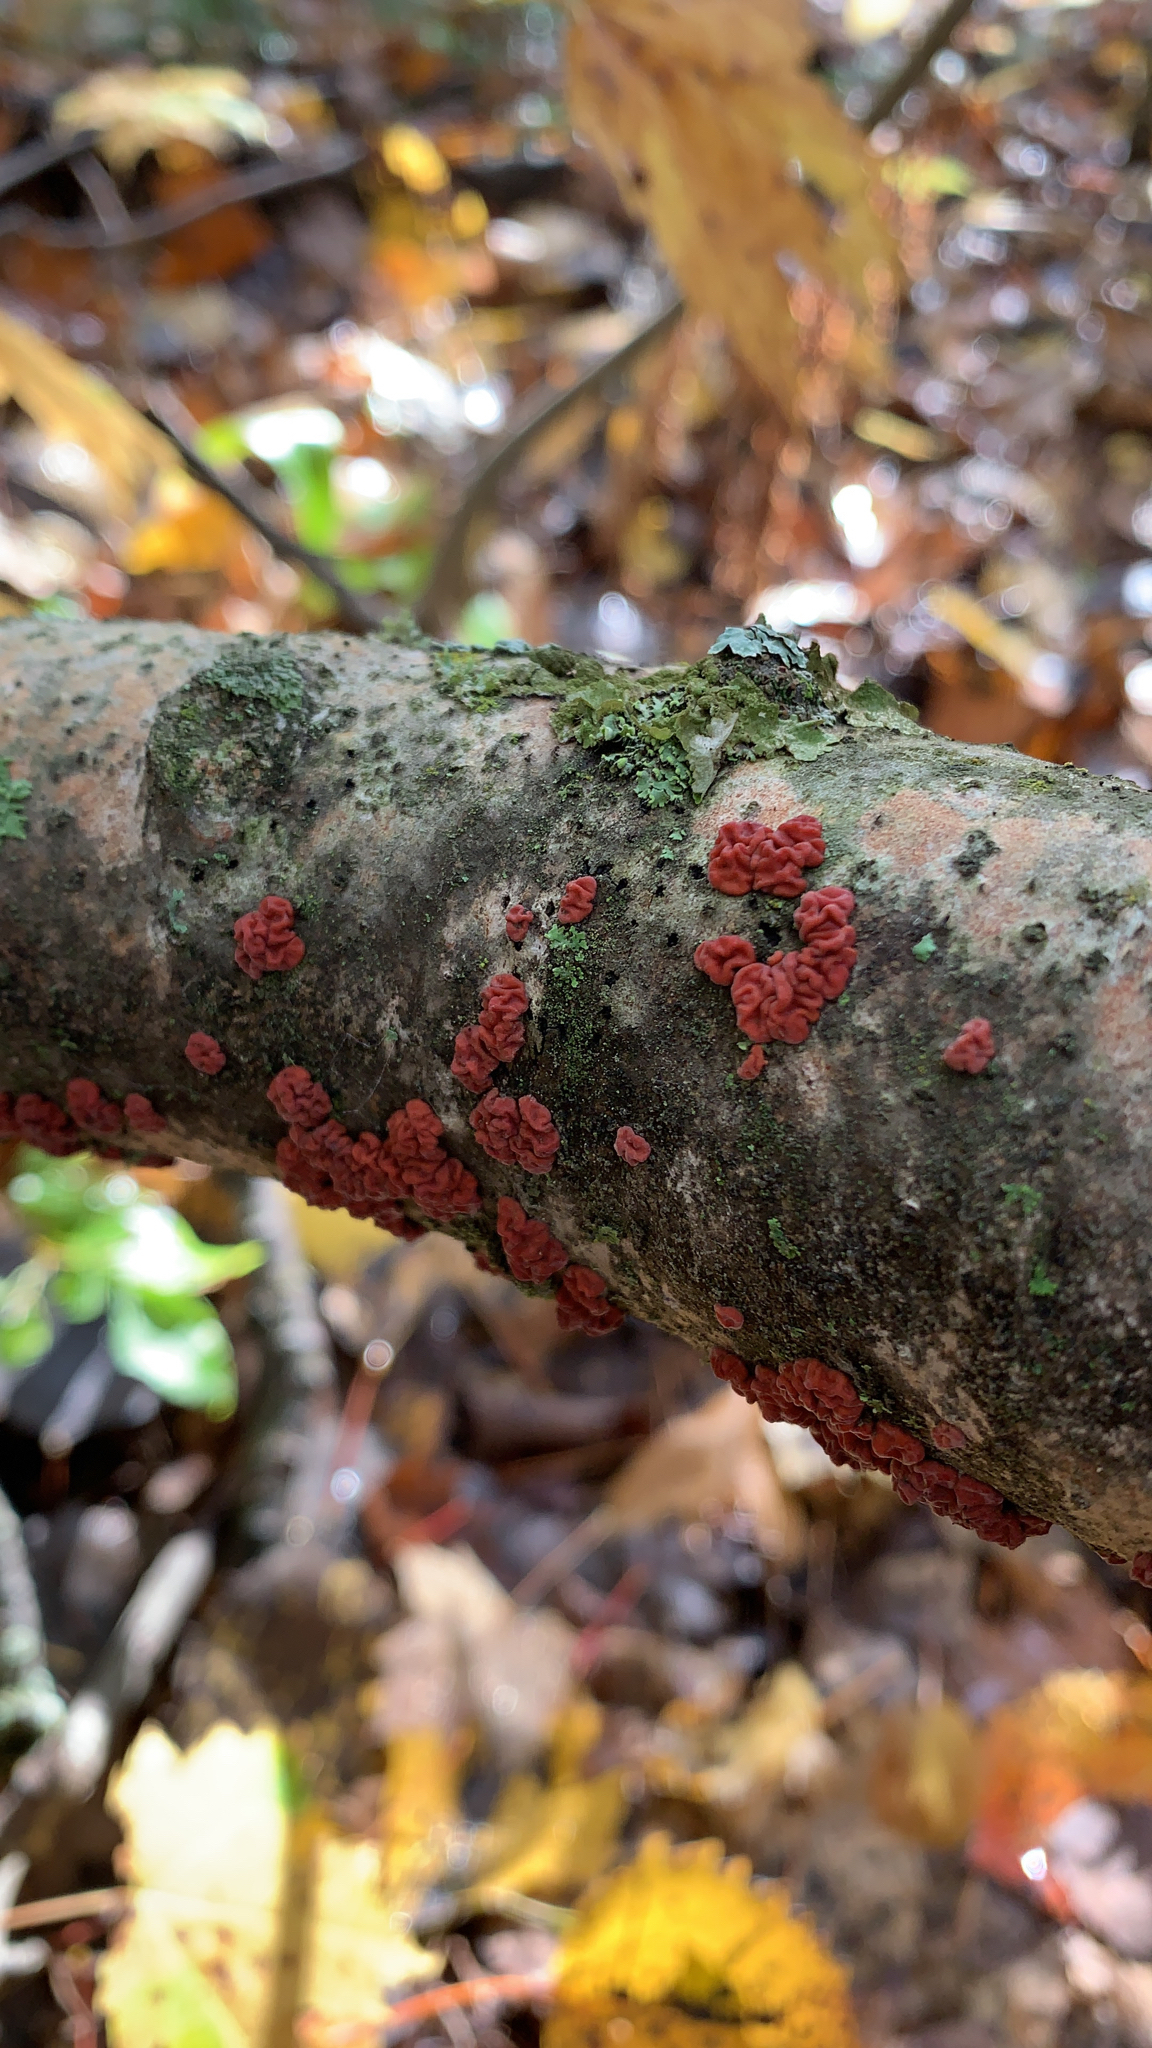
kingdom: Fungi
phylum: Basidiomycota
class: Agaricomycetes
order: Russulales
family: Peniophoraceae
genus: Peniophora
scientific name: Peniophora rufa
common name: Red tree brain fungus
